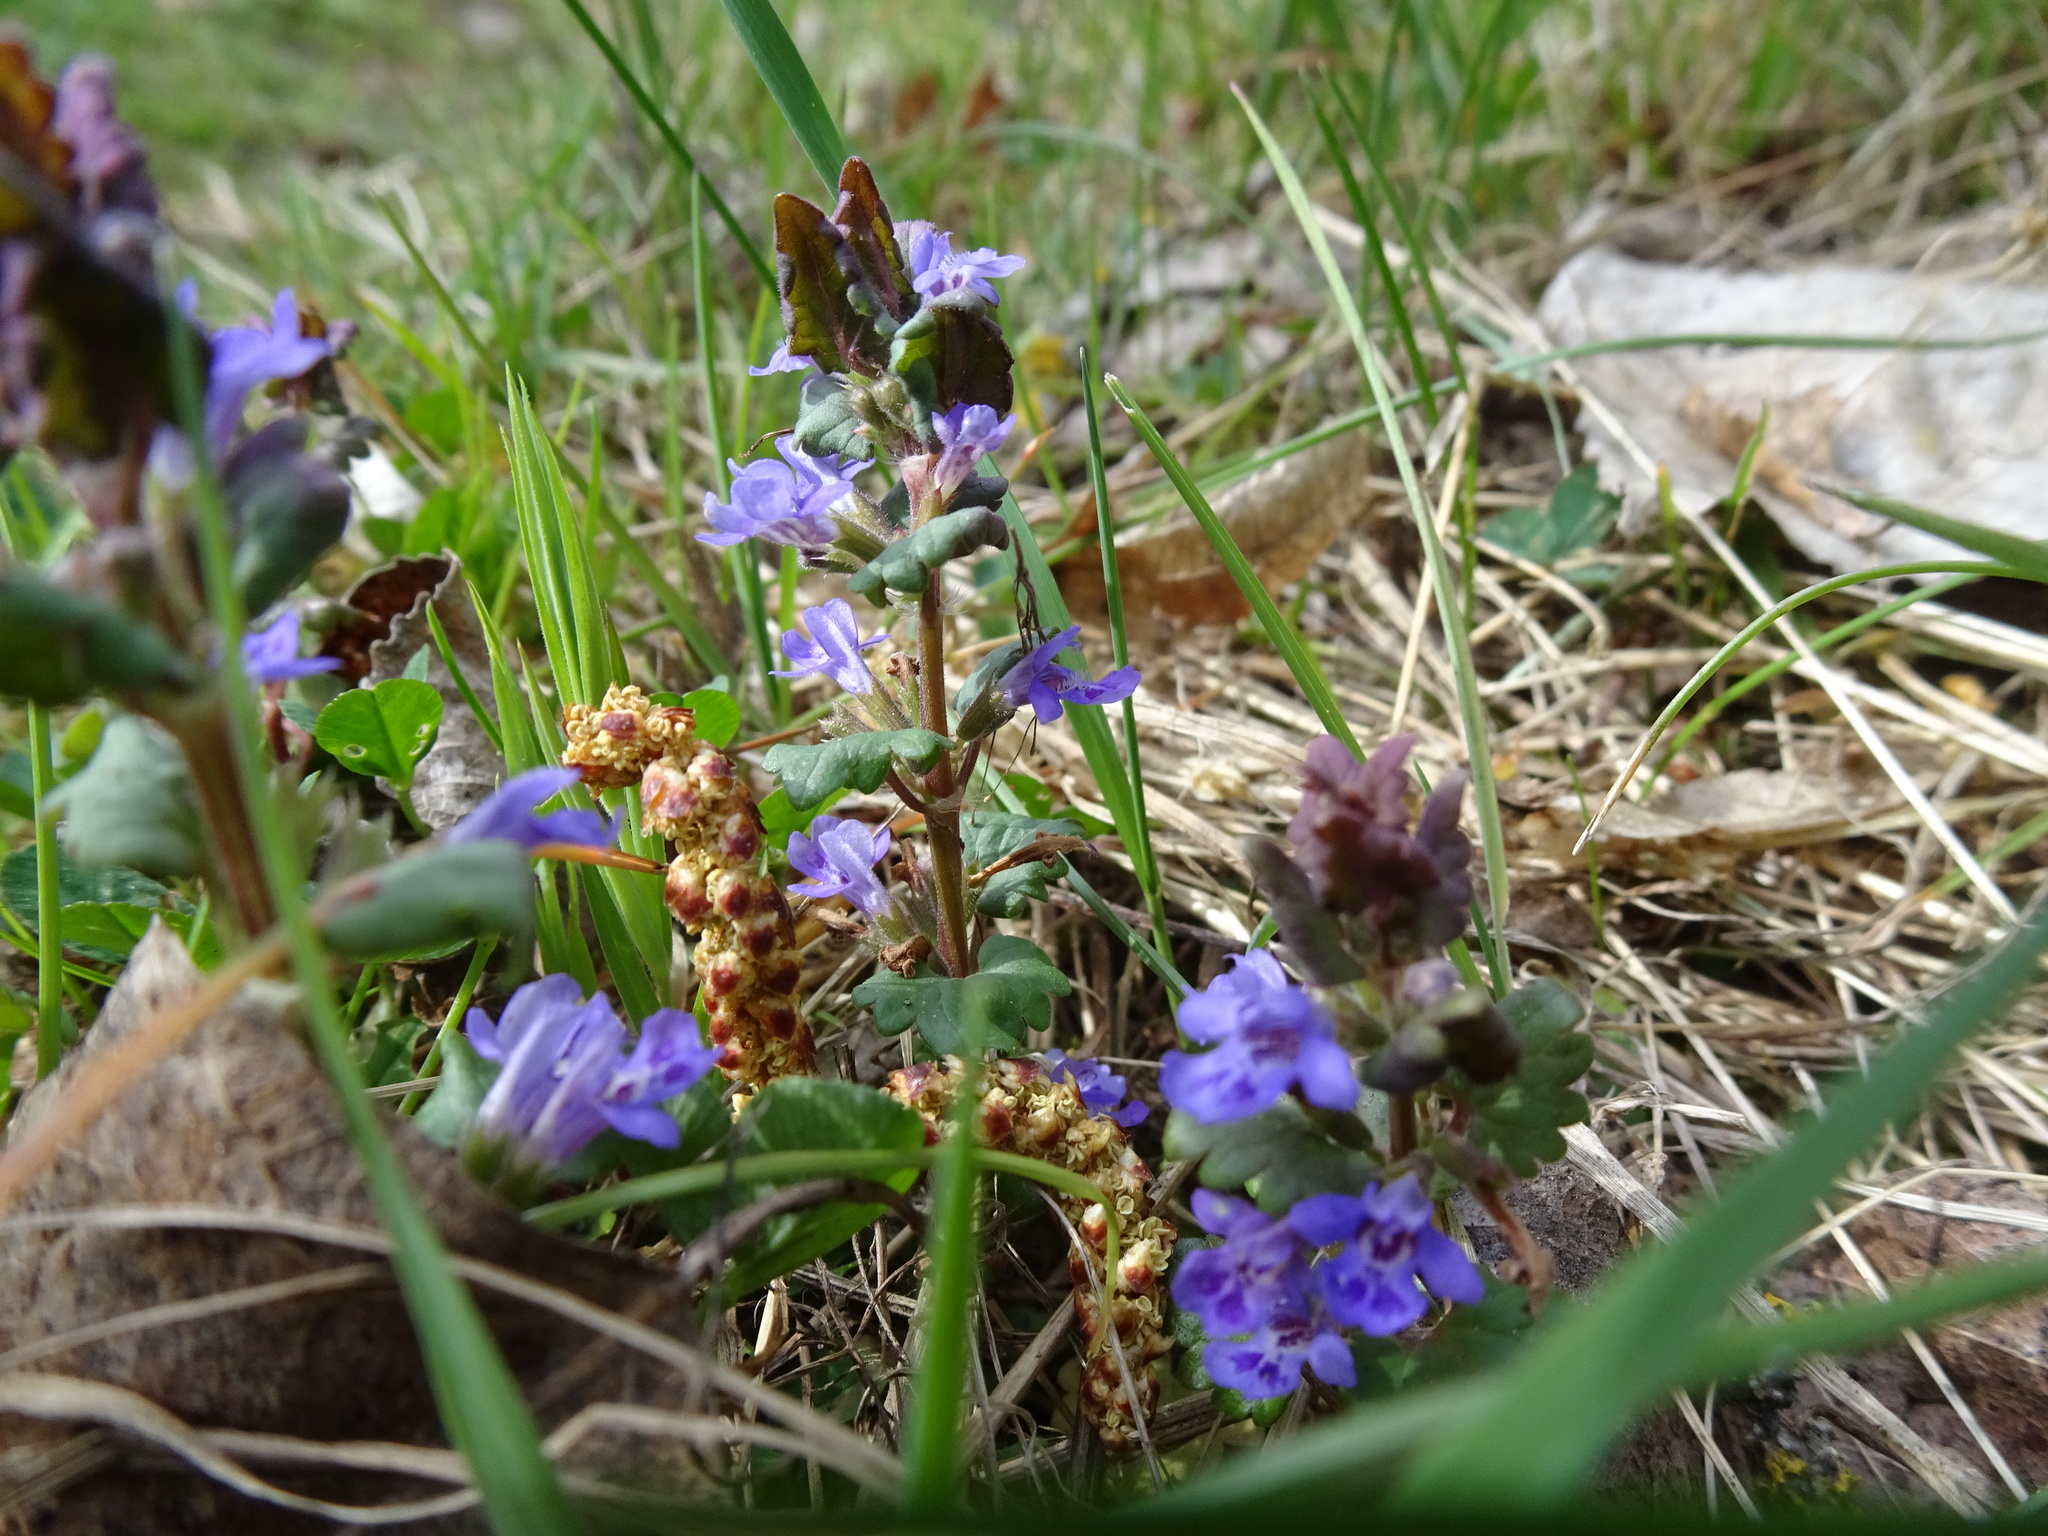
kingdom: Plantae
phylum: Tracheophyta
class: Magnoliopsida
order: Lamiales
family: Lamiaceae
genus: Glechoma
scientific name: Glechoma hederacea
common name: Ground ivy
